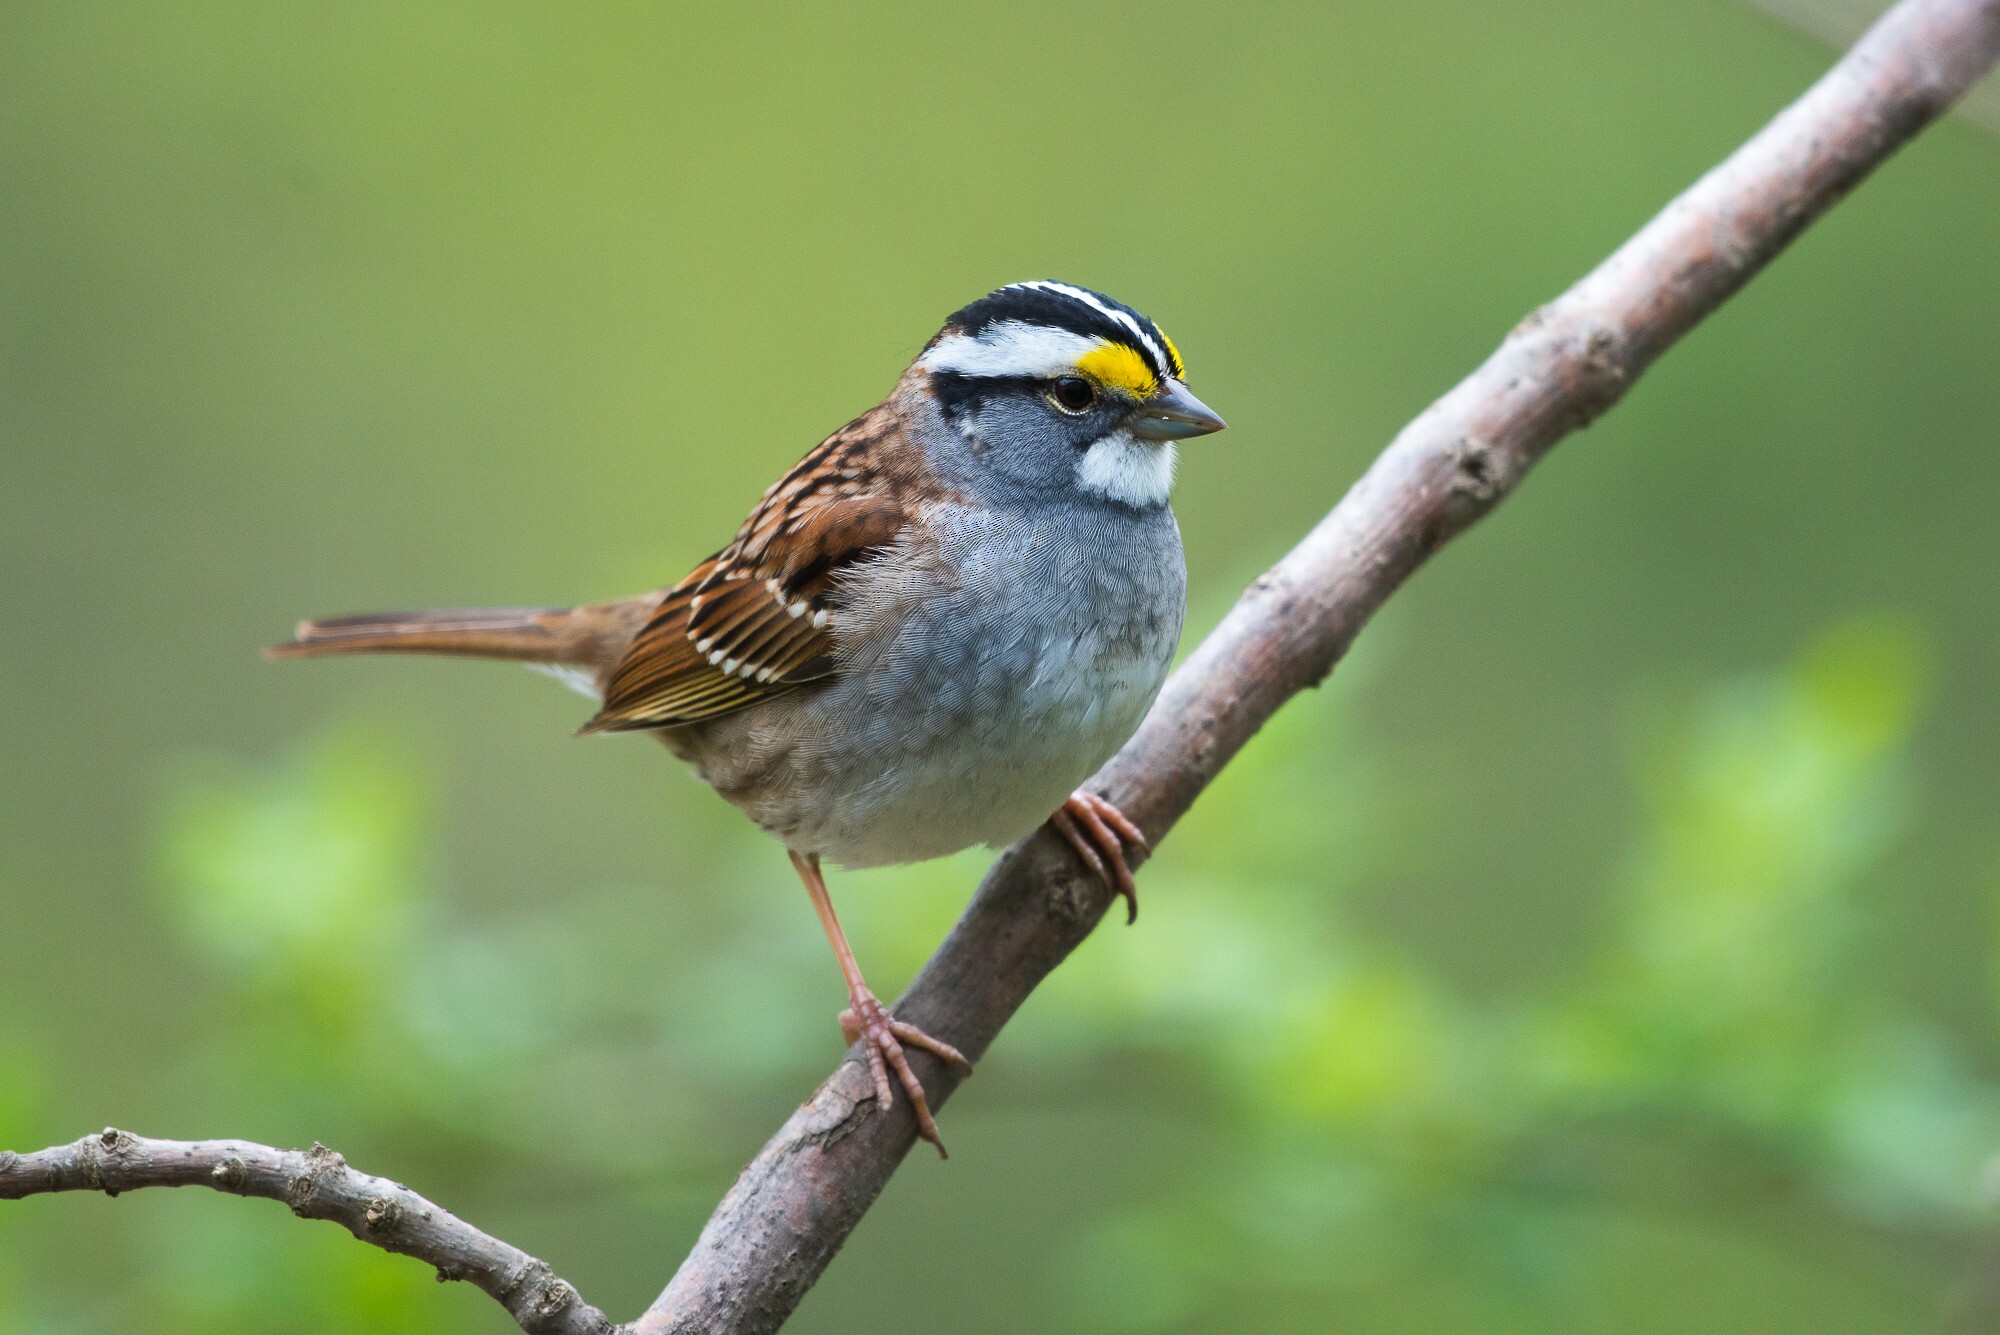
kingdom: Animalia
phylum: Chordata
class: Aves
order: Passeriformes
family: Passerellidae
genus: Zonotrichia
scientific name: Zonotrichia albicollis
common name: White-throated sparrow
